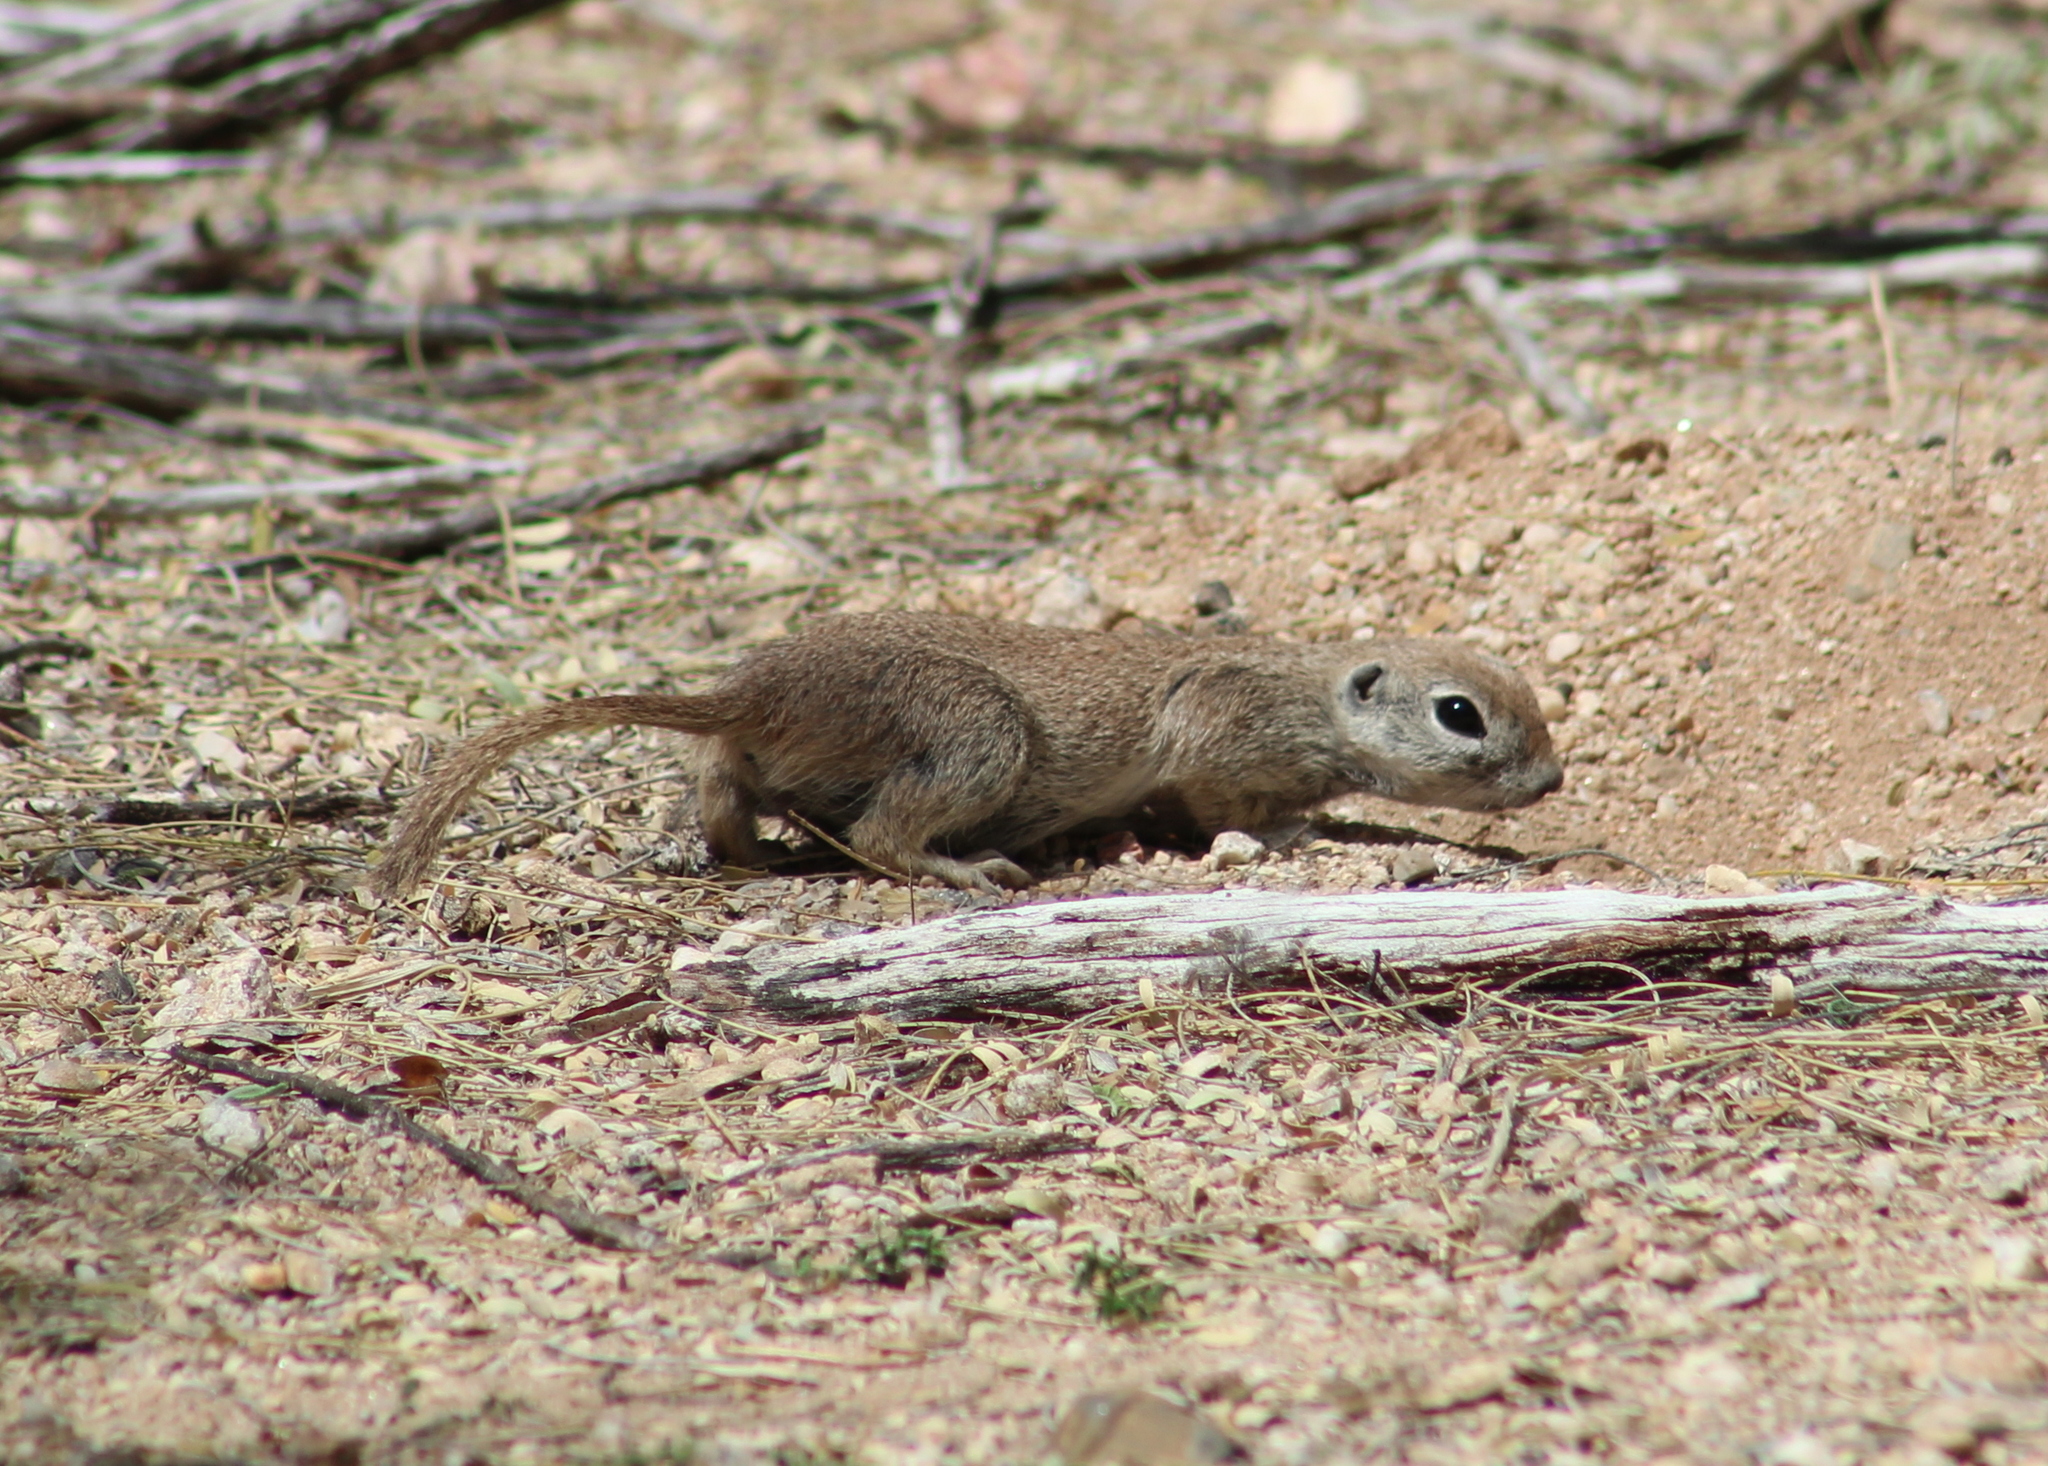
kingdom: Animalia
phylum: Chordata
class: Mammalia
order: Rodentia
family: Sciuridae
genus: Xerospermophilus
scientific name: Xerospermophilus tereticaudus
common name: Round-tailed ground squirrel
